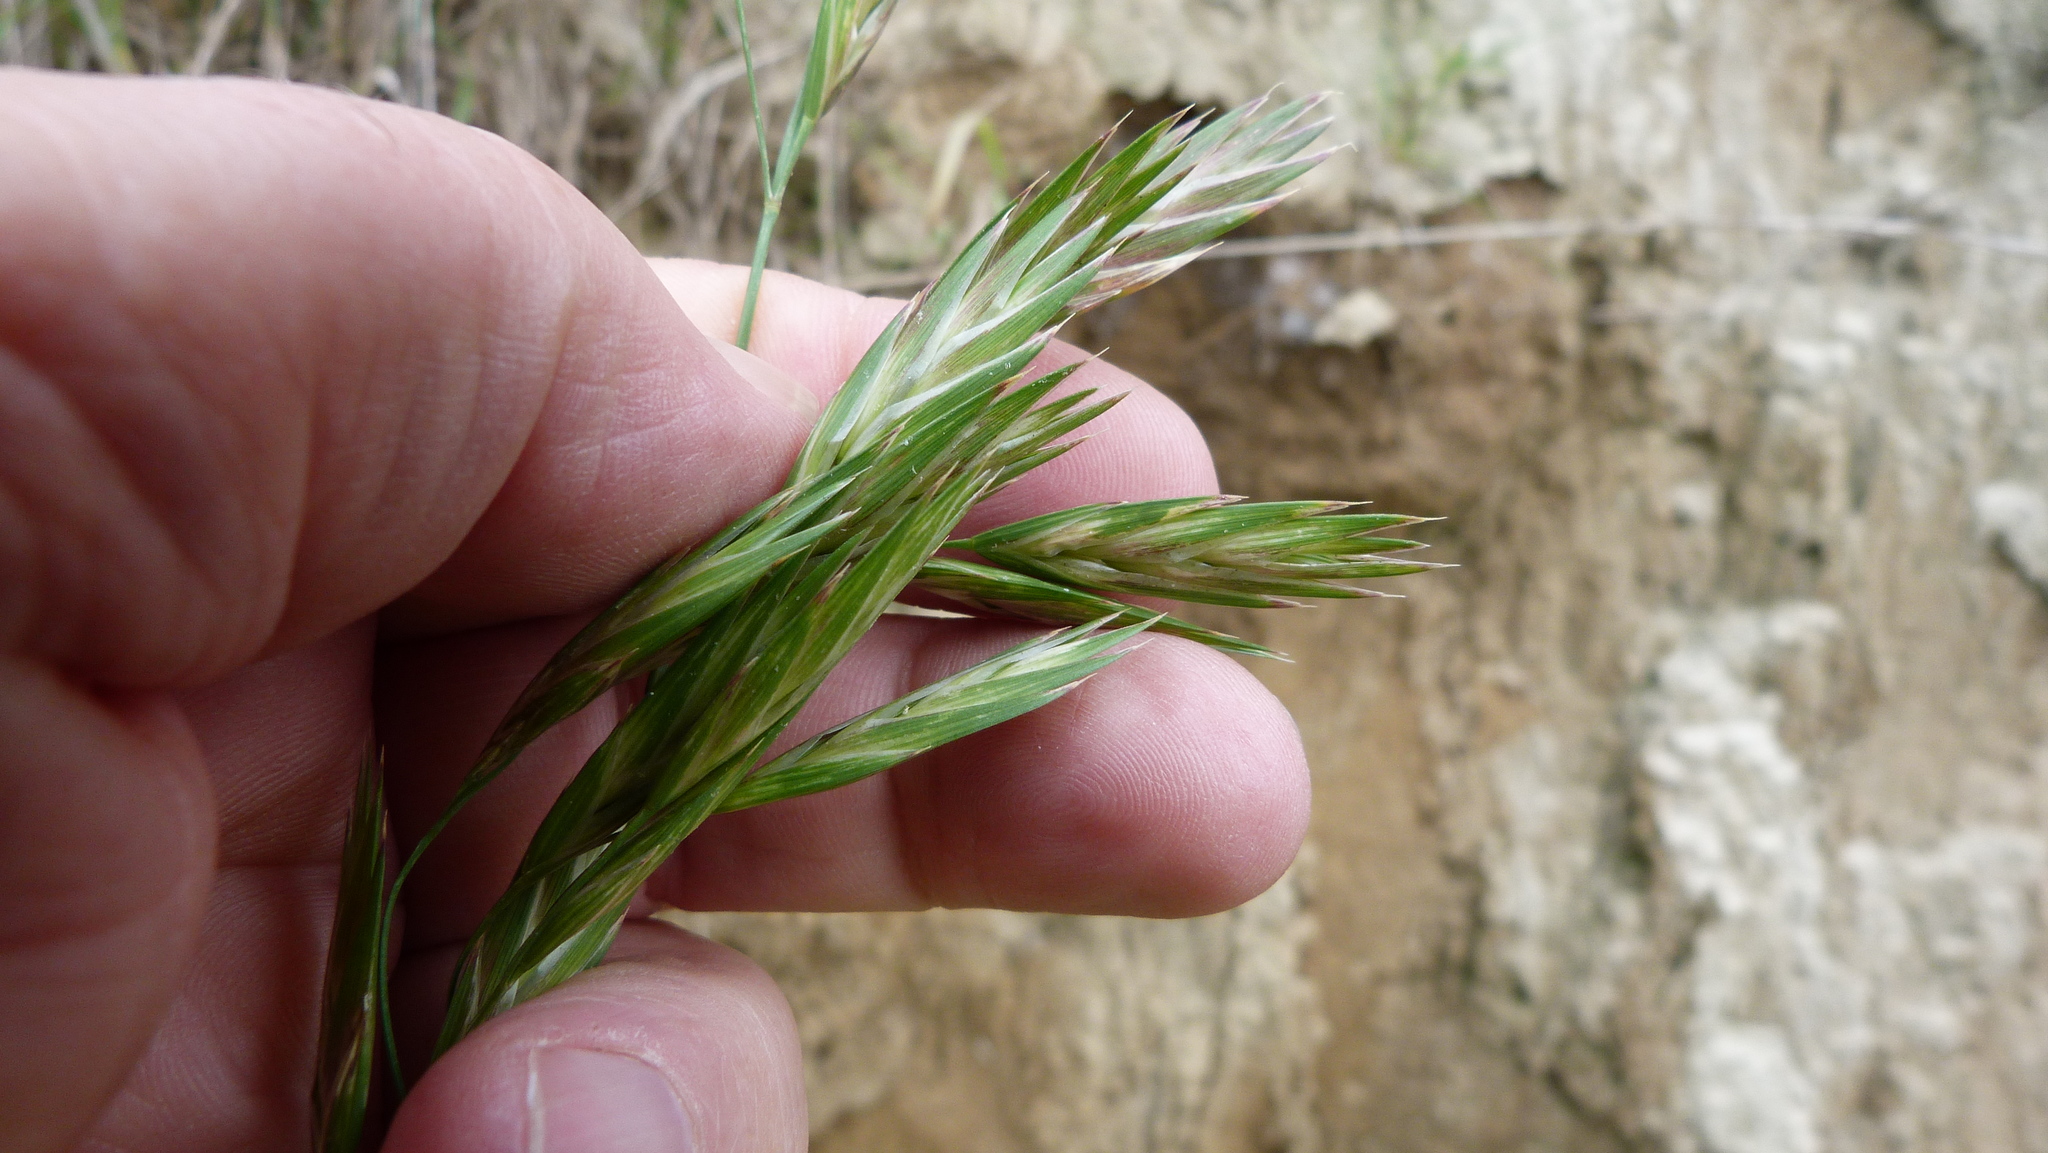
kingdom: Plantae
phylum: Tracheophyta
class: Liliopsida
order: Poales
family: Poaceae
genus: Bromus
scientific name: Bromus catharticus
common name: Rescuegrass
